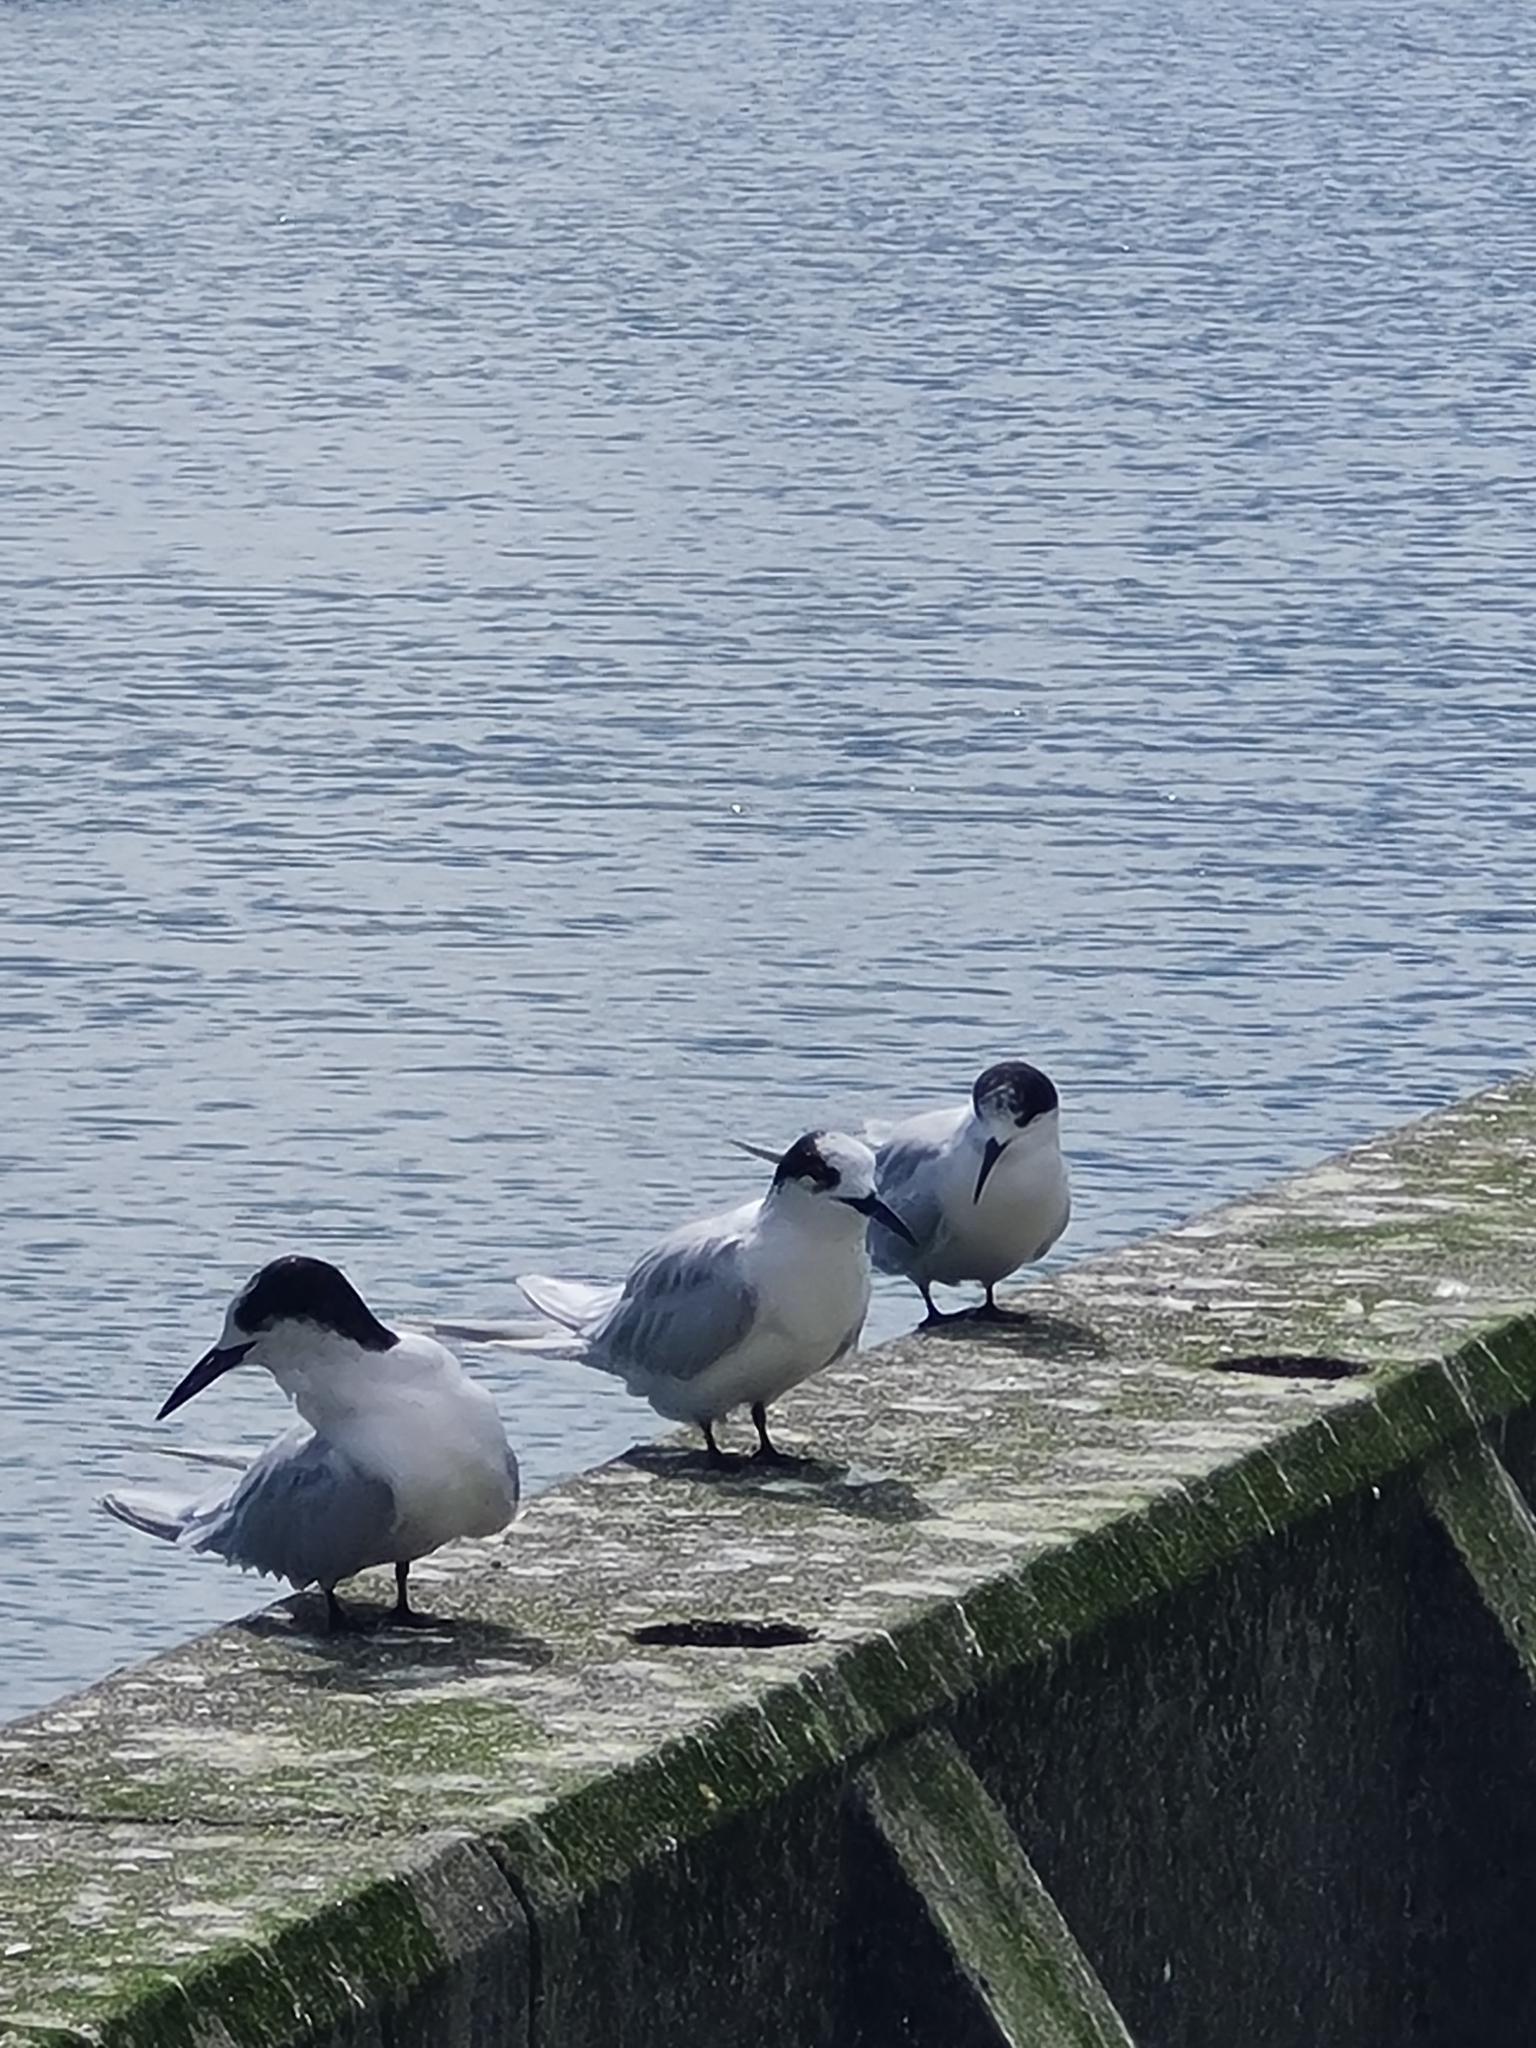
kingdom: Animalia
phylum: Chordata
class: Aves
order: Charadriiformes
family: Laridae
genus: Sterna
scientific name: Sterna striata
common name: White-fronted tern
